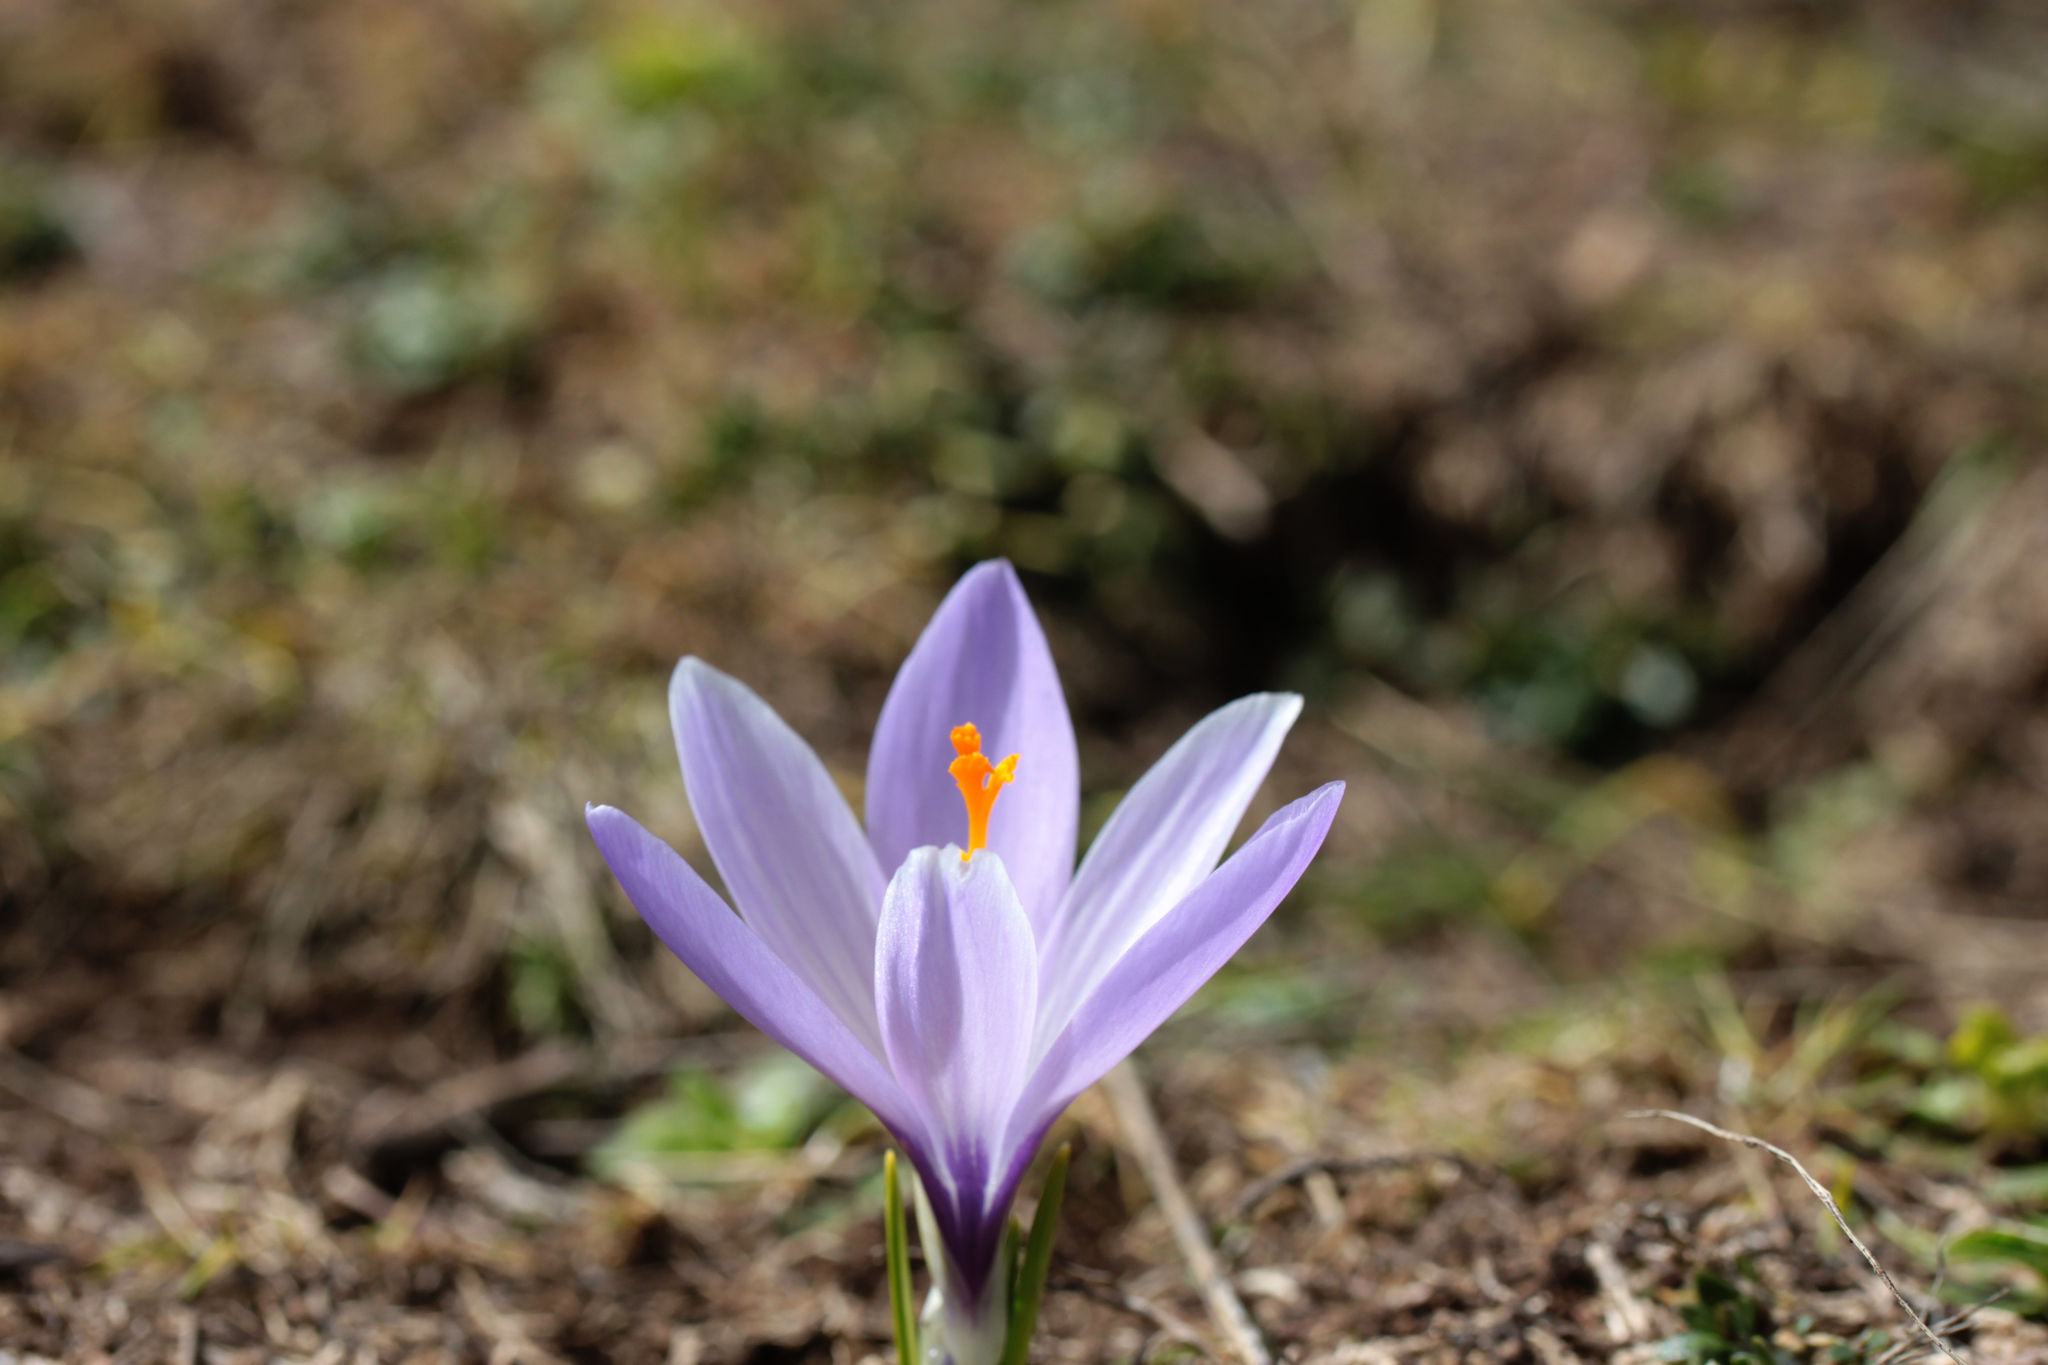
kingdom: Plantae
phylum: Tracheophyta
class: Liliopsida
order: Asparagales
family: Iridaceae
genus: Crocus
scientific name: Crocus neapolitanus
